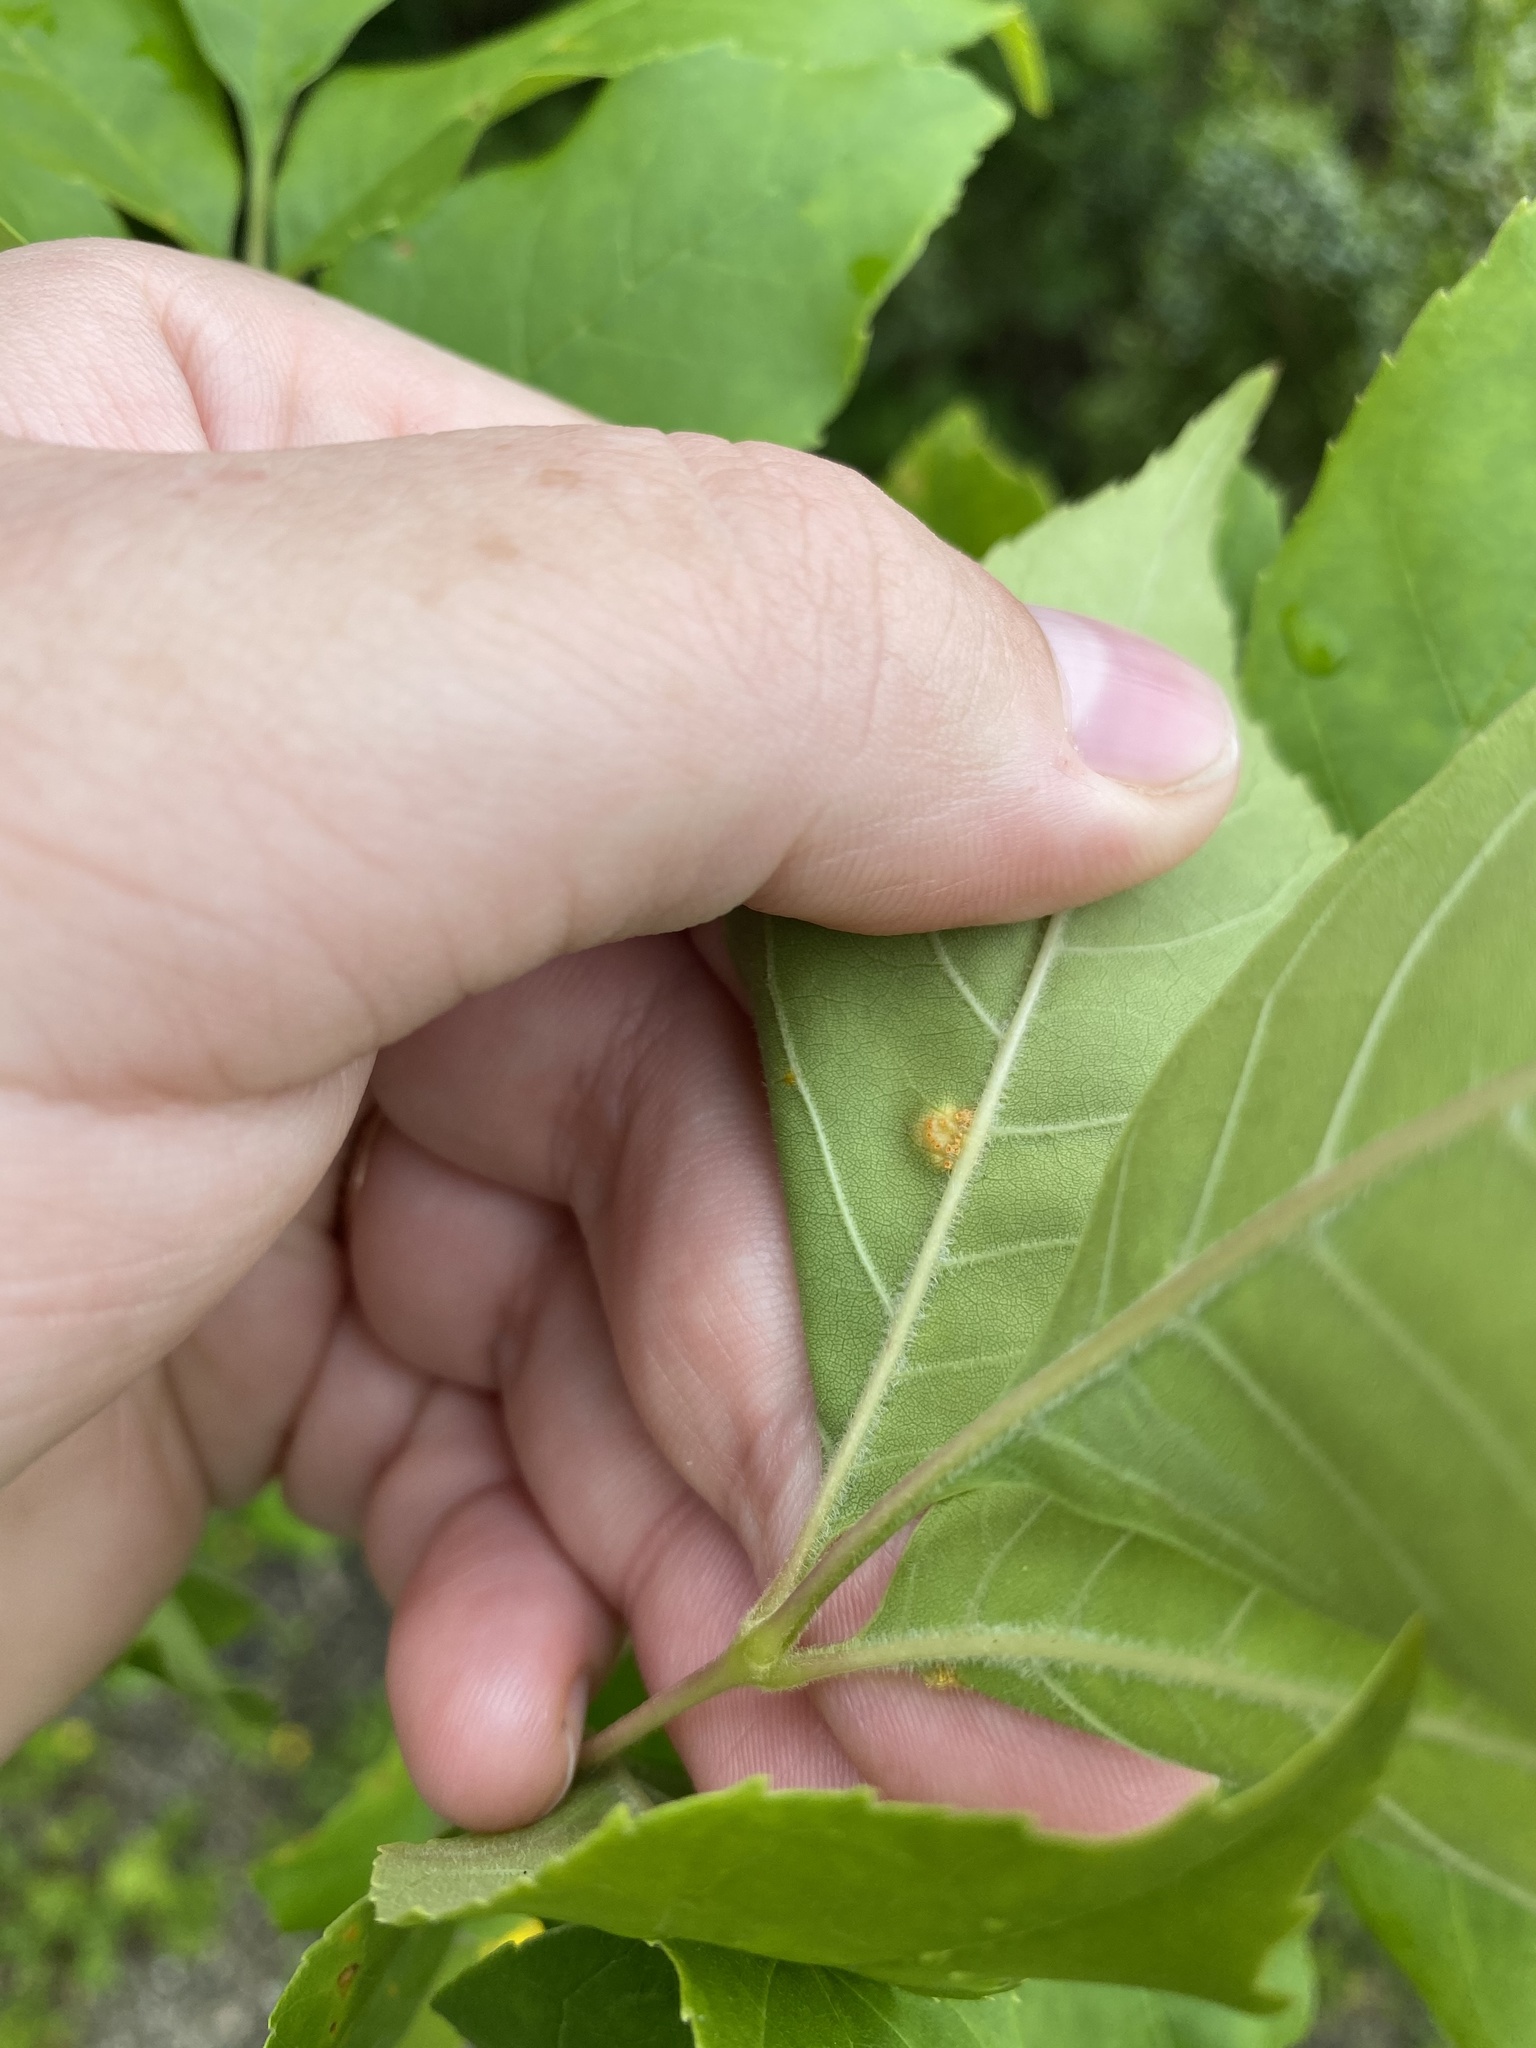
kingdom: Fungi
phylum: Basidiomycota
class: Pucciniomycetes
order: Pucciniales
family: Pucciniaceae
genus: Puccinia
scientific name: Puccinia sparganioidis
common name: Ash rust
